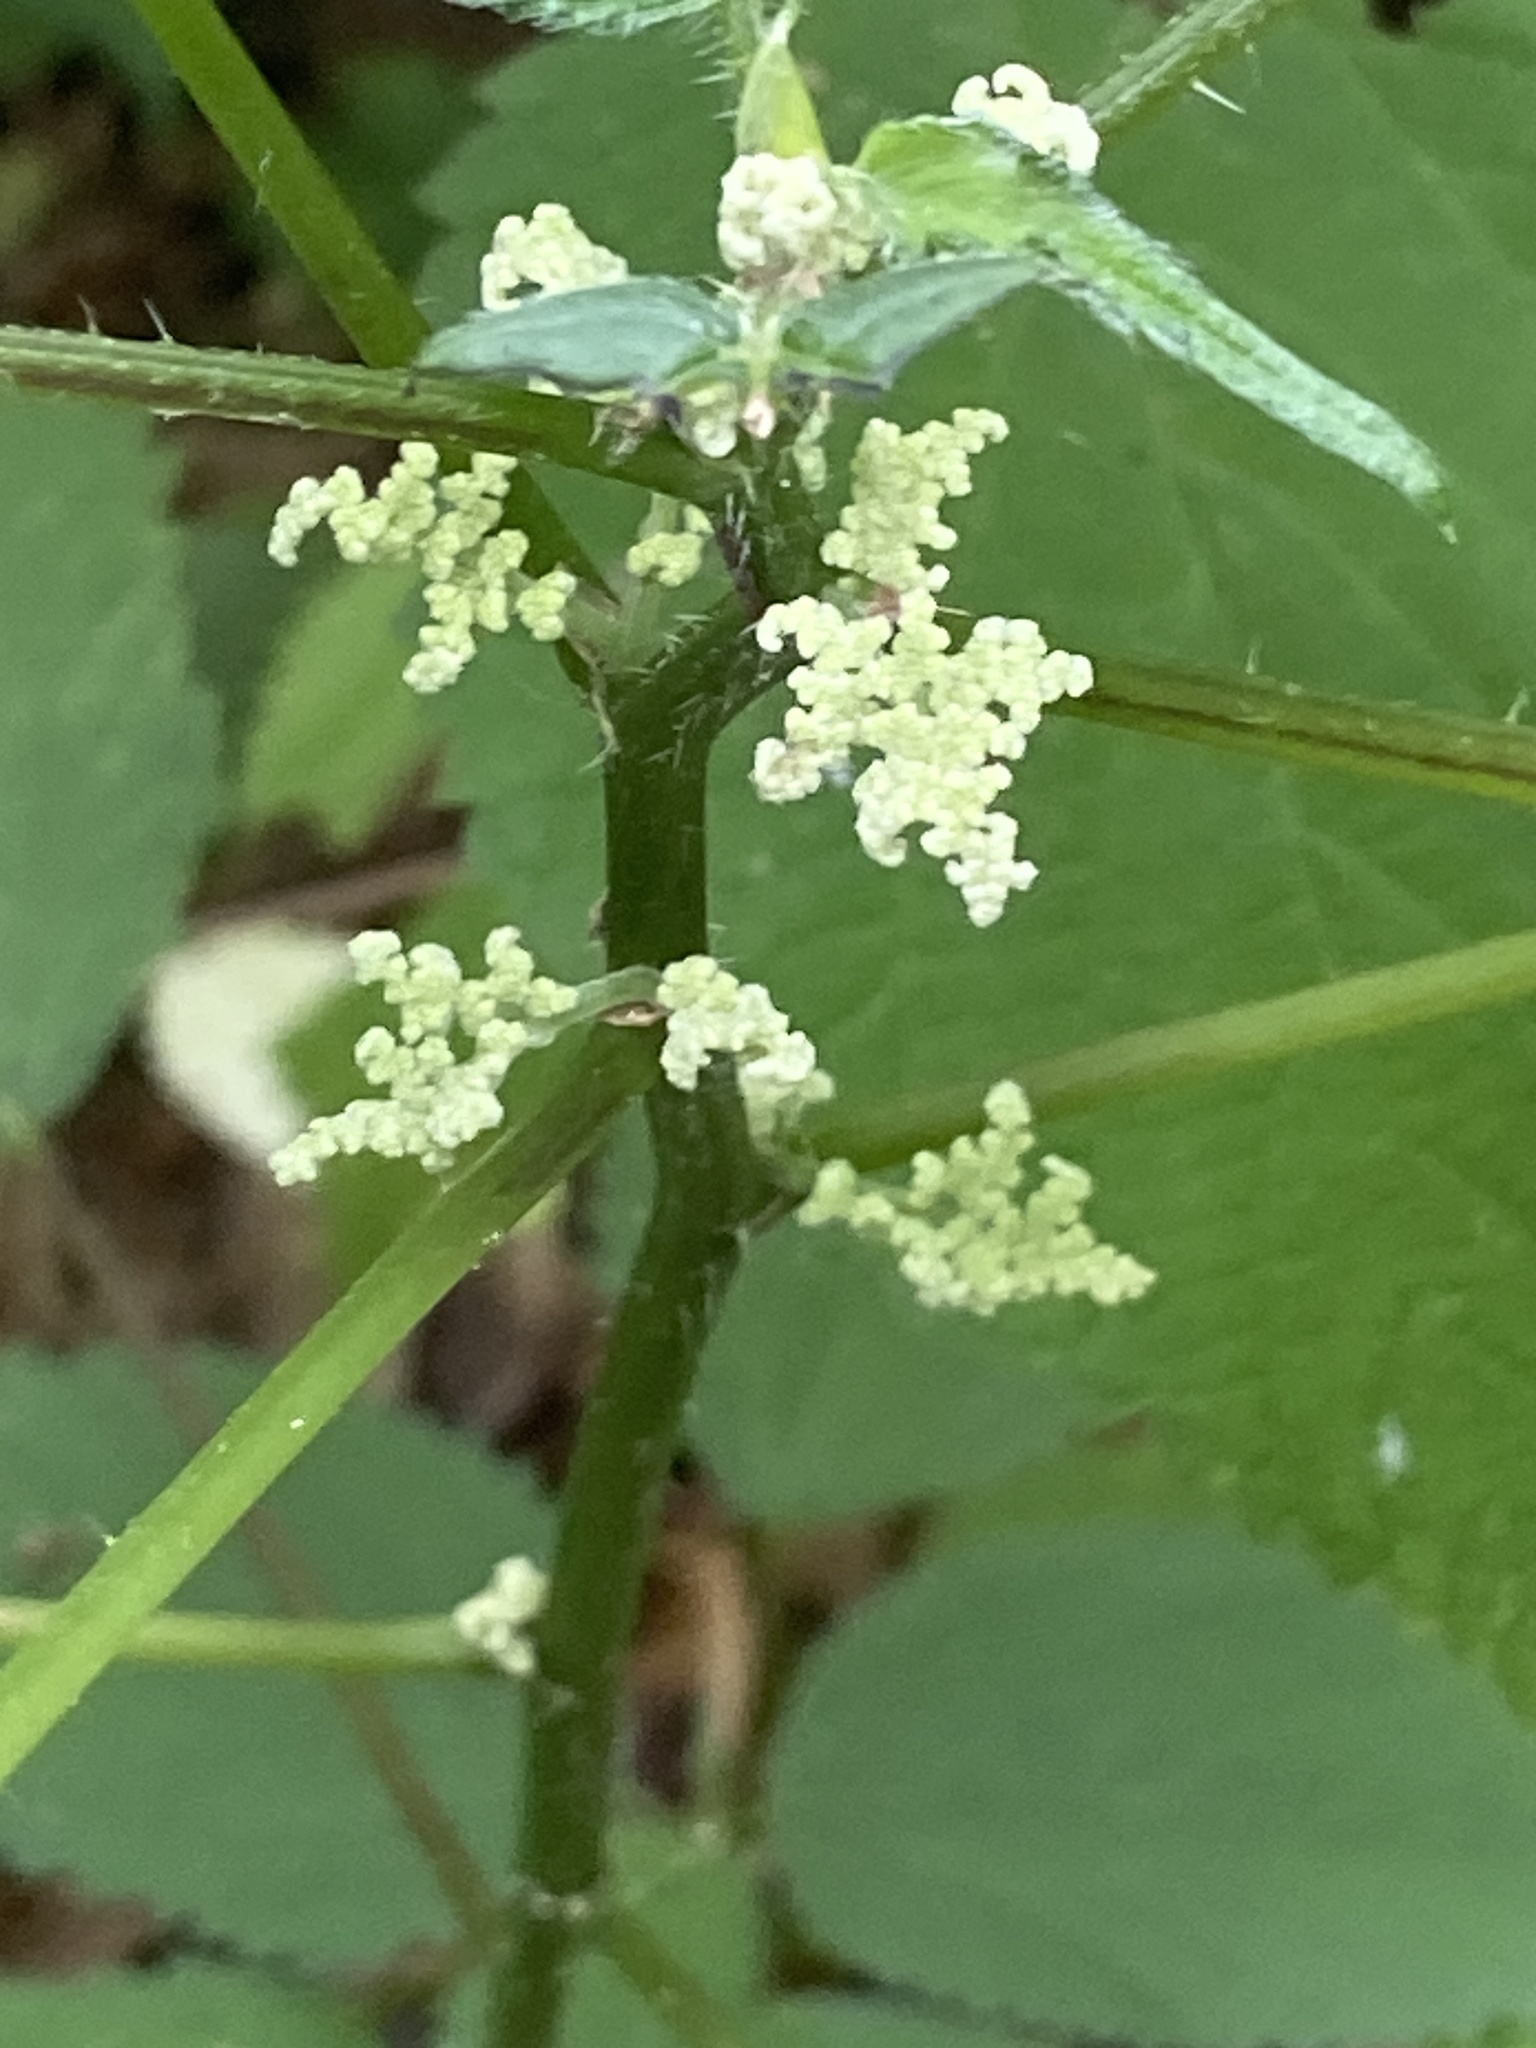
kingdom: Plantae
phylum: Tracheophyta
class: Magnoliopsida
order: Rosales
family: Urticaceae
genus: Laportea
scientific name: Laportea canadensis
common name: Canada nettle
